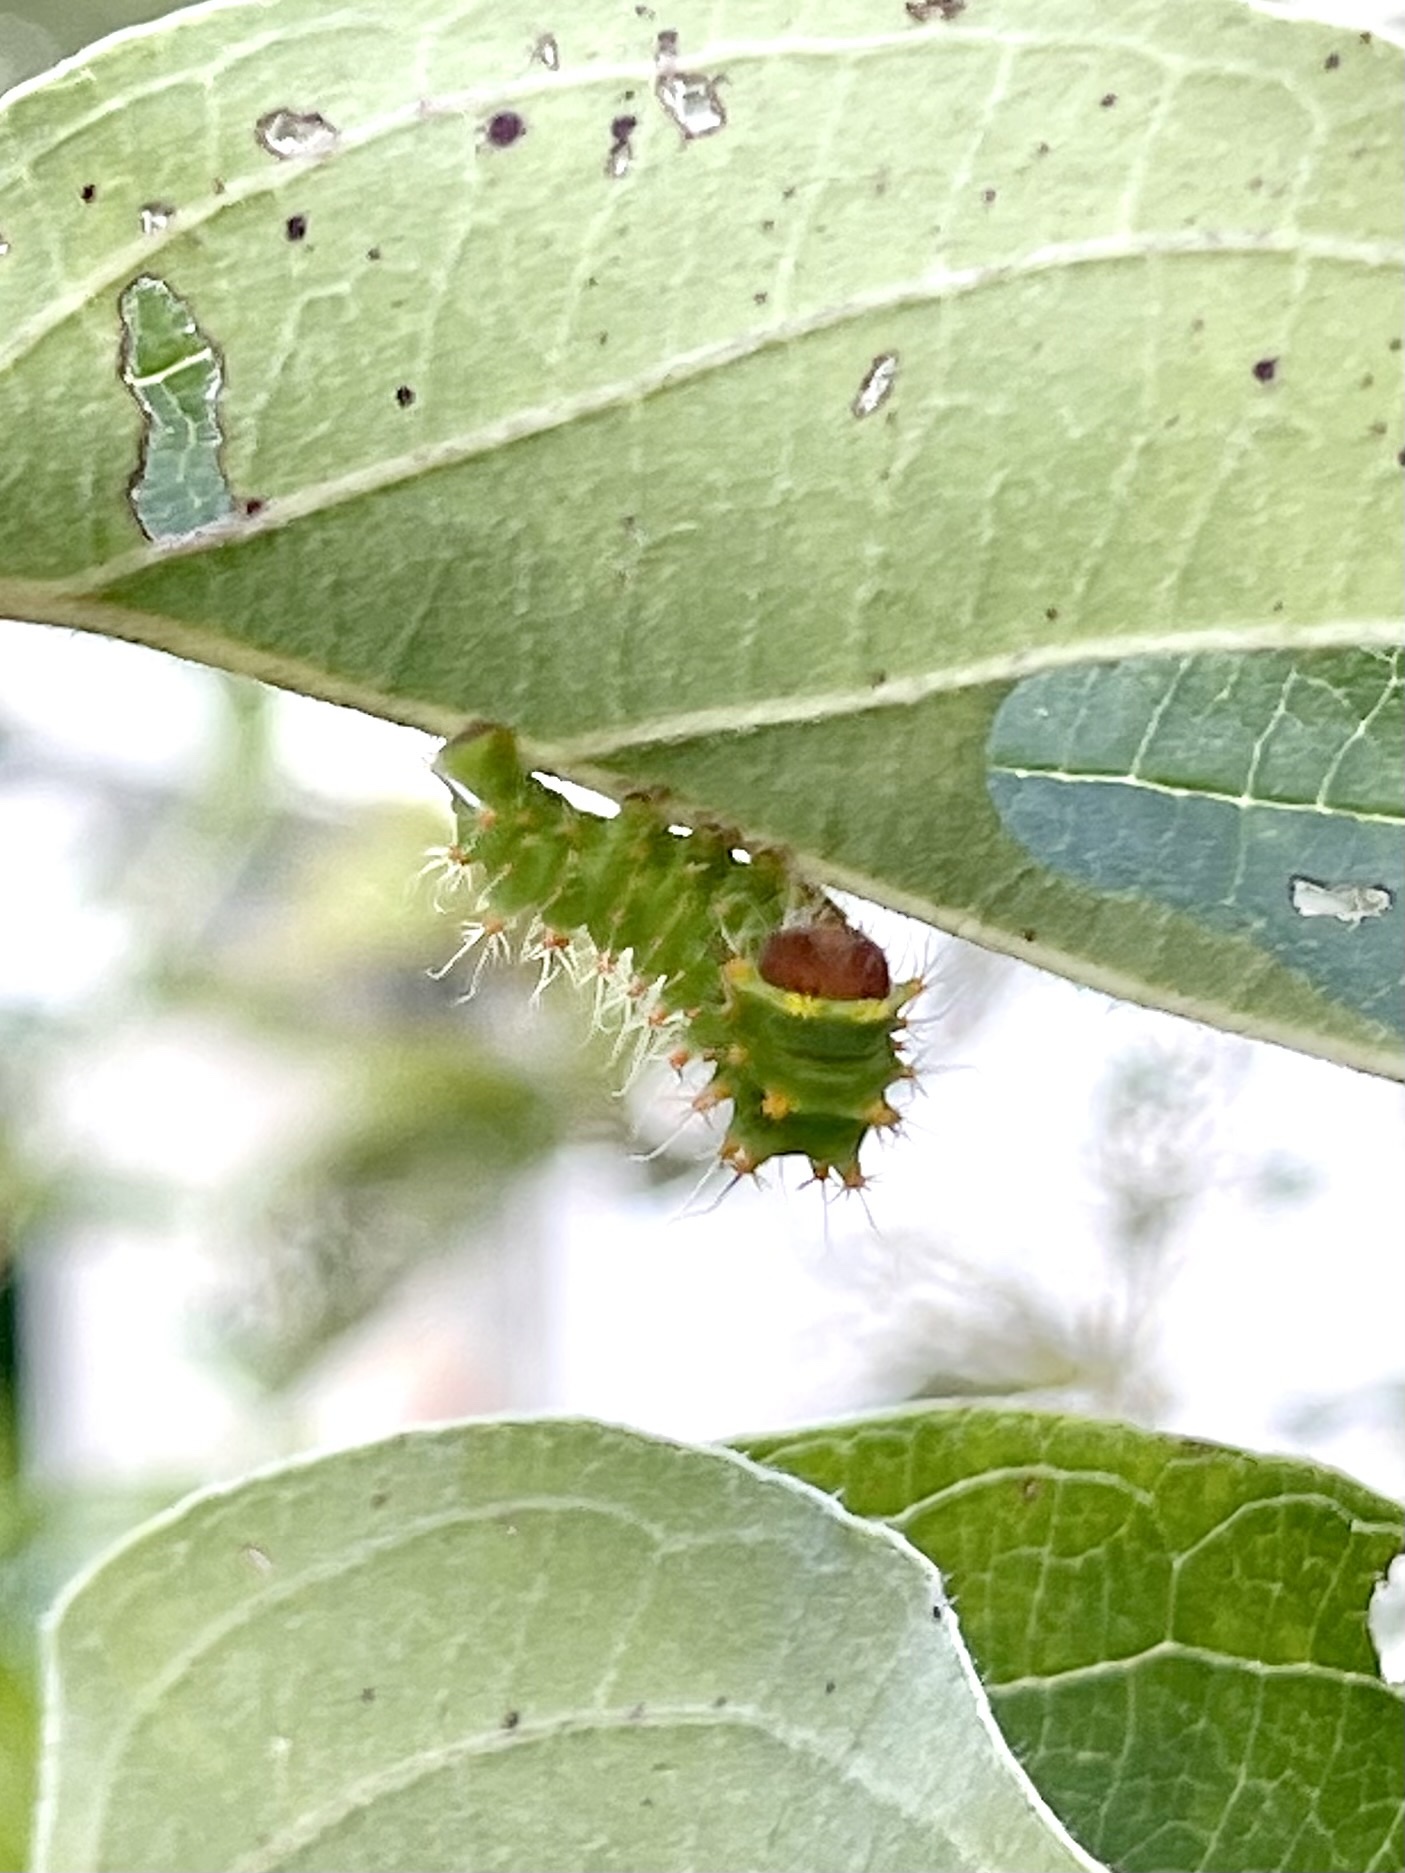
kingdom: Animalia
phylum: Arthropoda
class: Insecta
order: Lepidoptera
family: Saturniidae
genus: Antheraea
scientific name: Antheraea polyphemus
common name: Polyphemus moth
